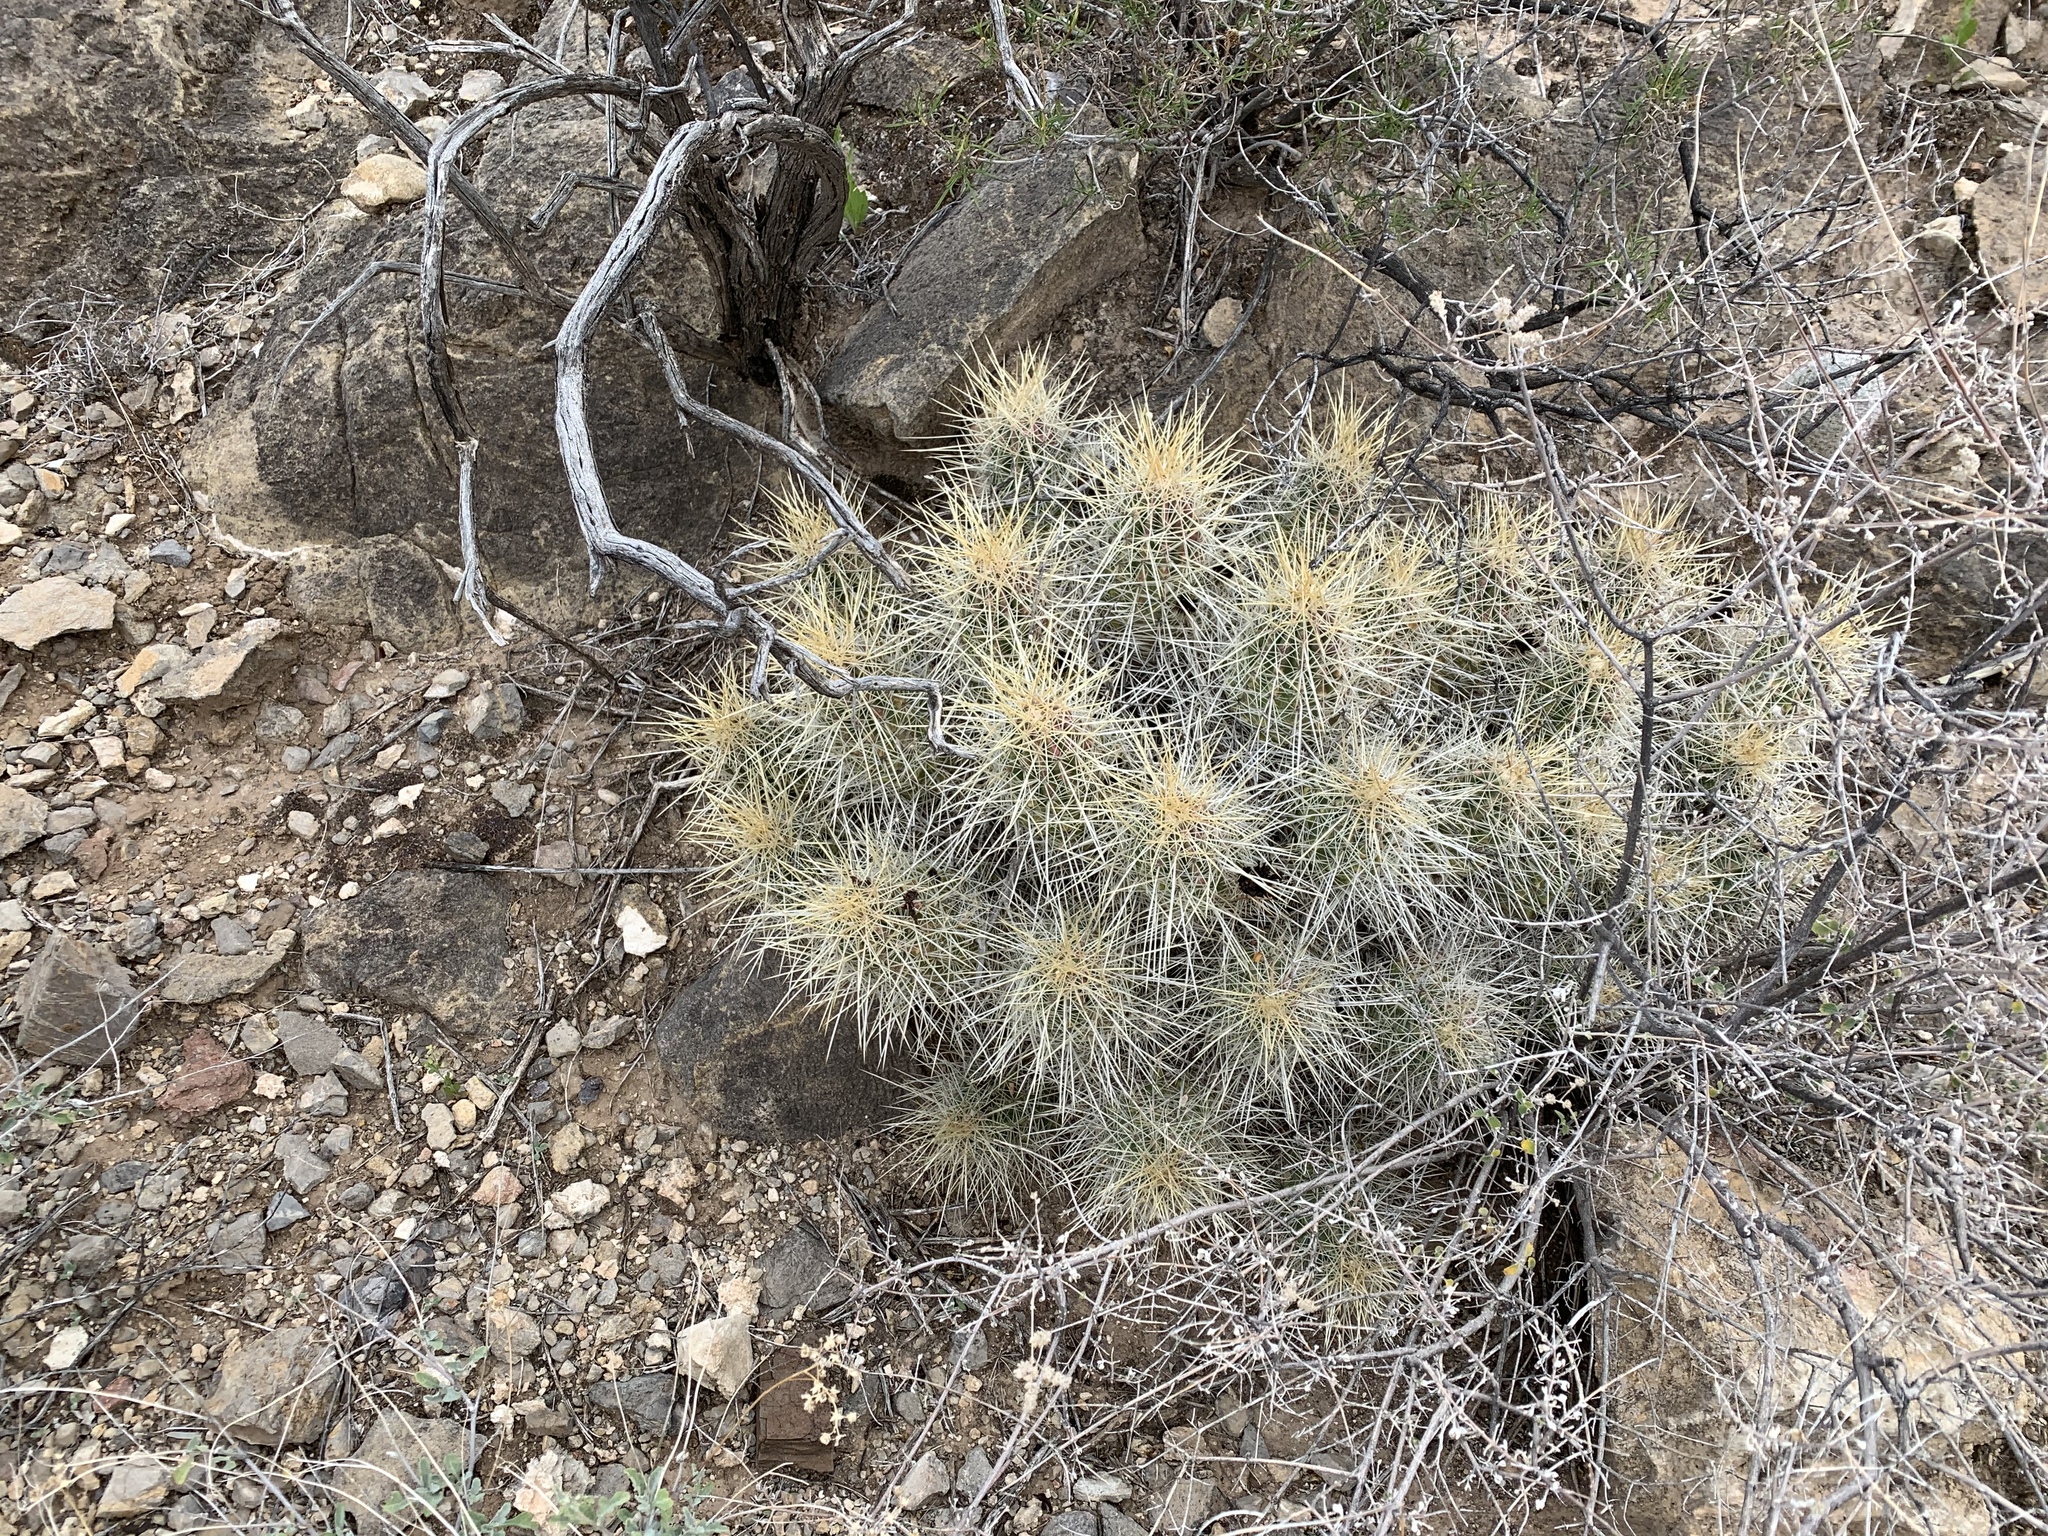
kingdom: Plantae
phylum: Tracheophyta
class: Magnoliopsida
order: Caryophyllales
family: Cactaceae
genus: Echinocereus
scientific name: Echinocereus stramineus
